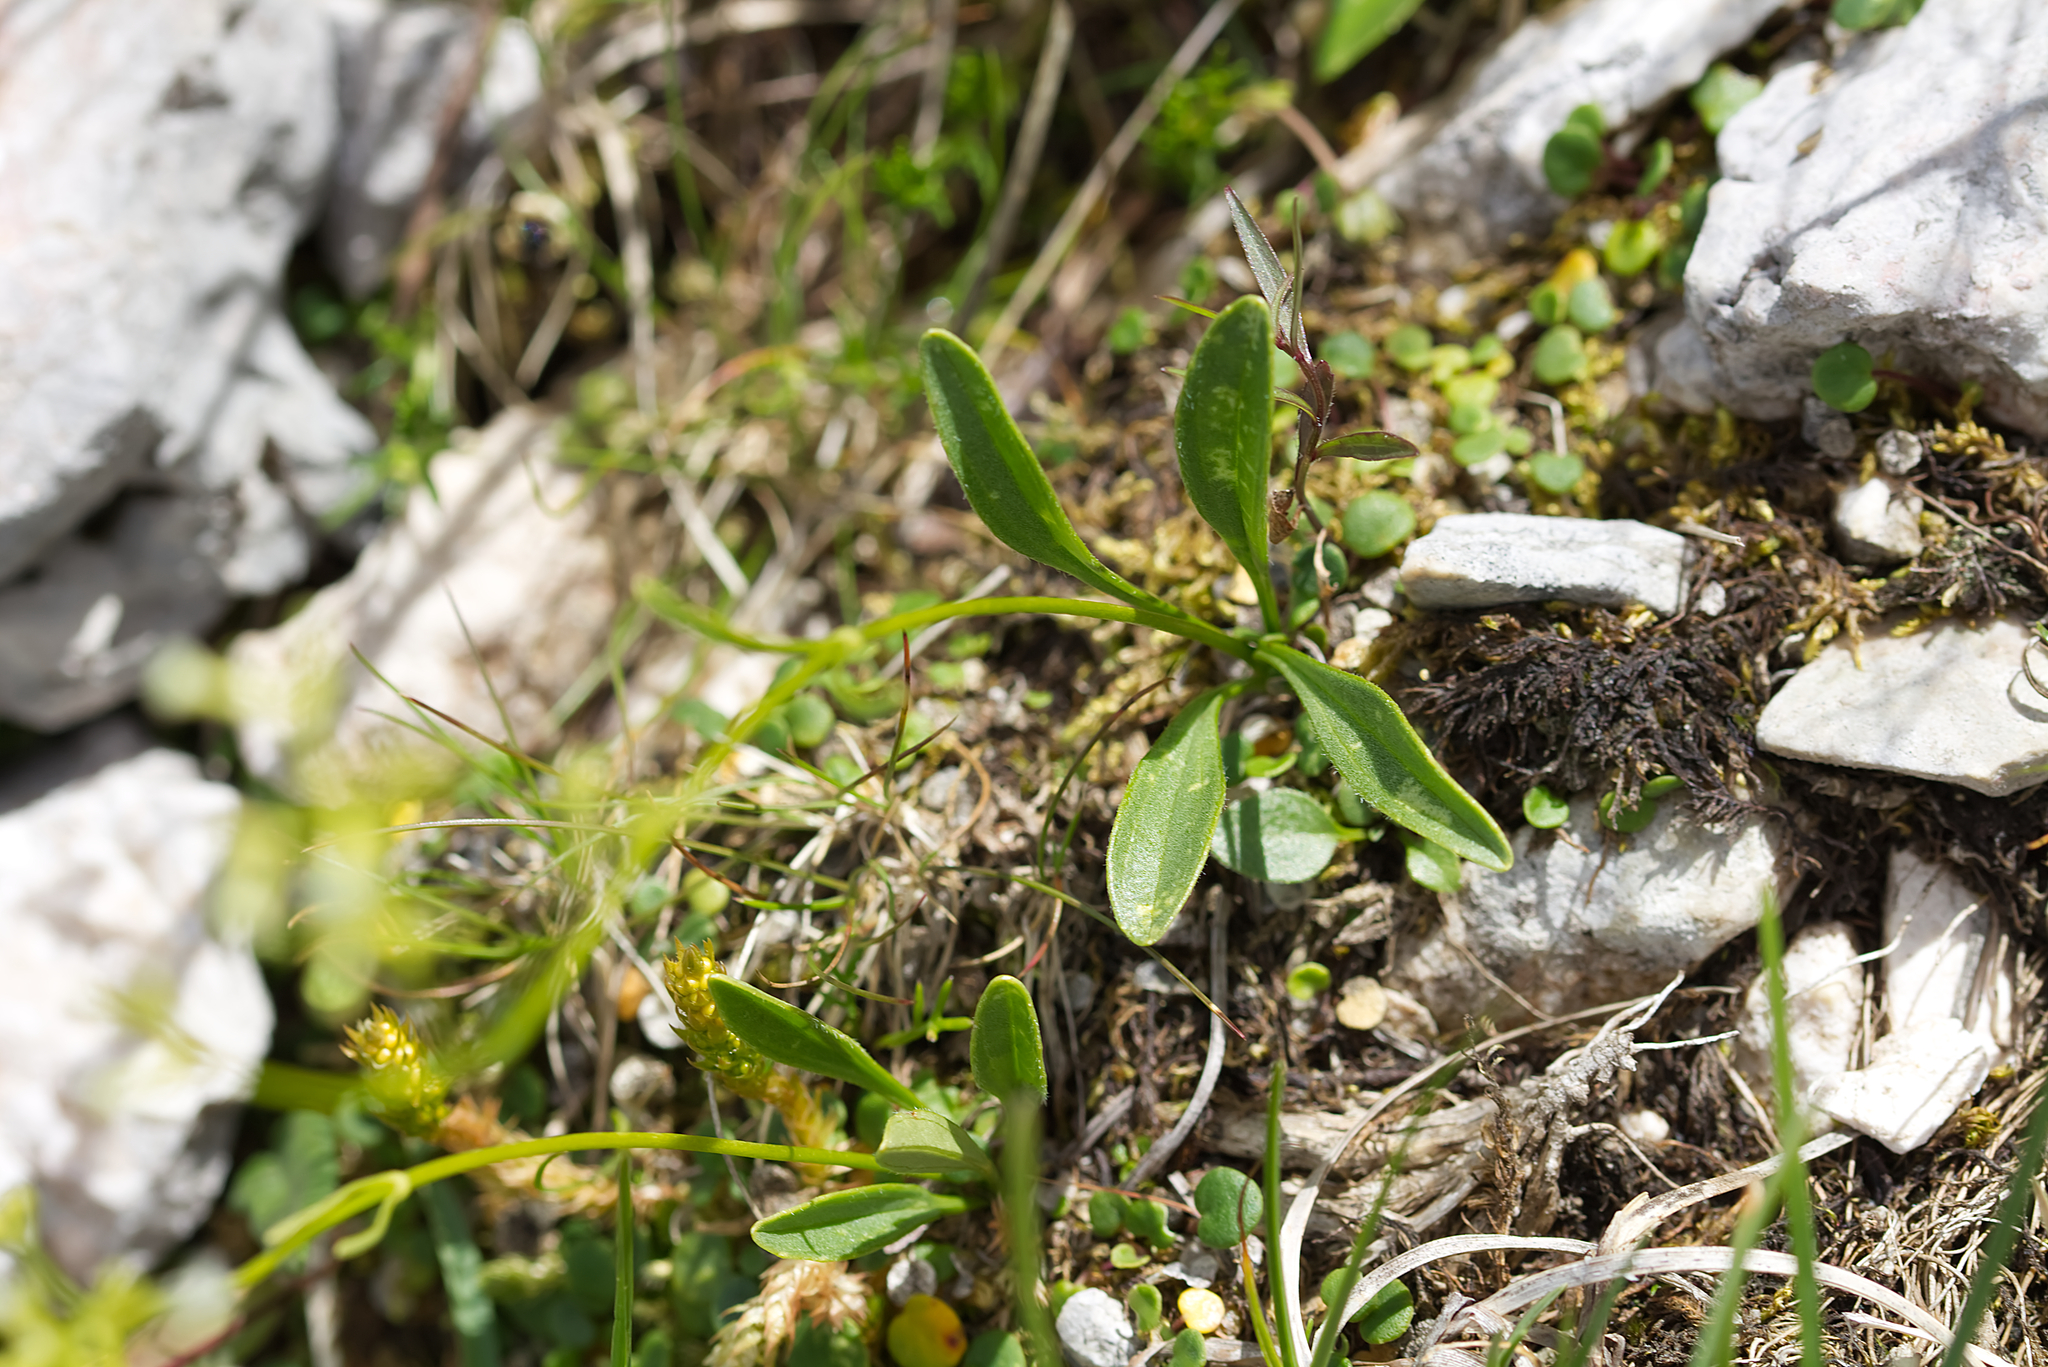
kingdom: Plantae
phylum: Tracheophyta
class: Magnoliopsida
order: Dipsacales
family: Caprifoliaceae
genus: Valeriana
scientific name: Valeriana saxatilis
